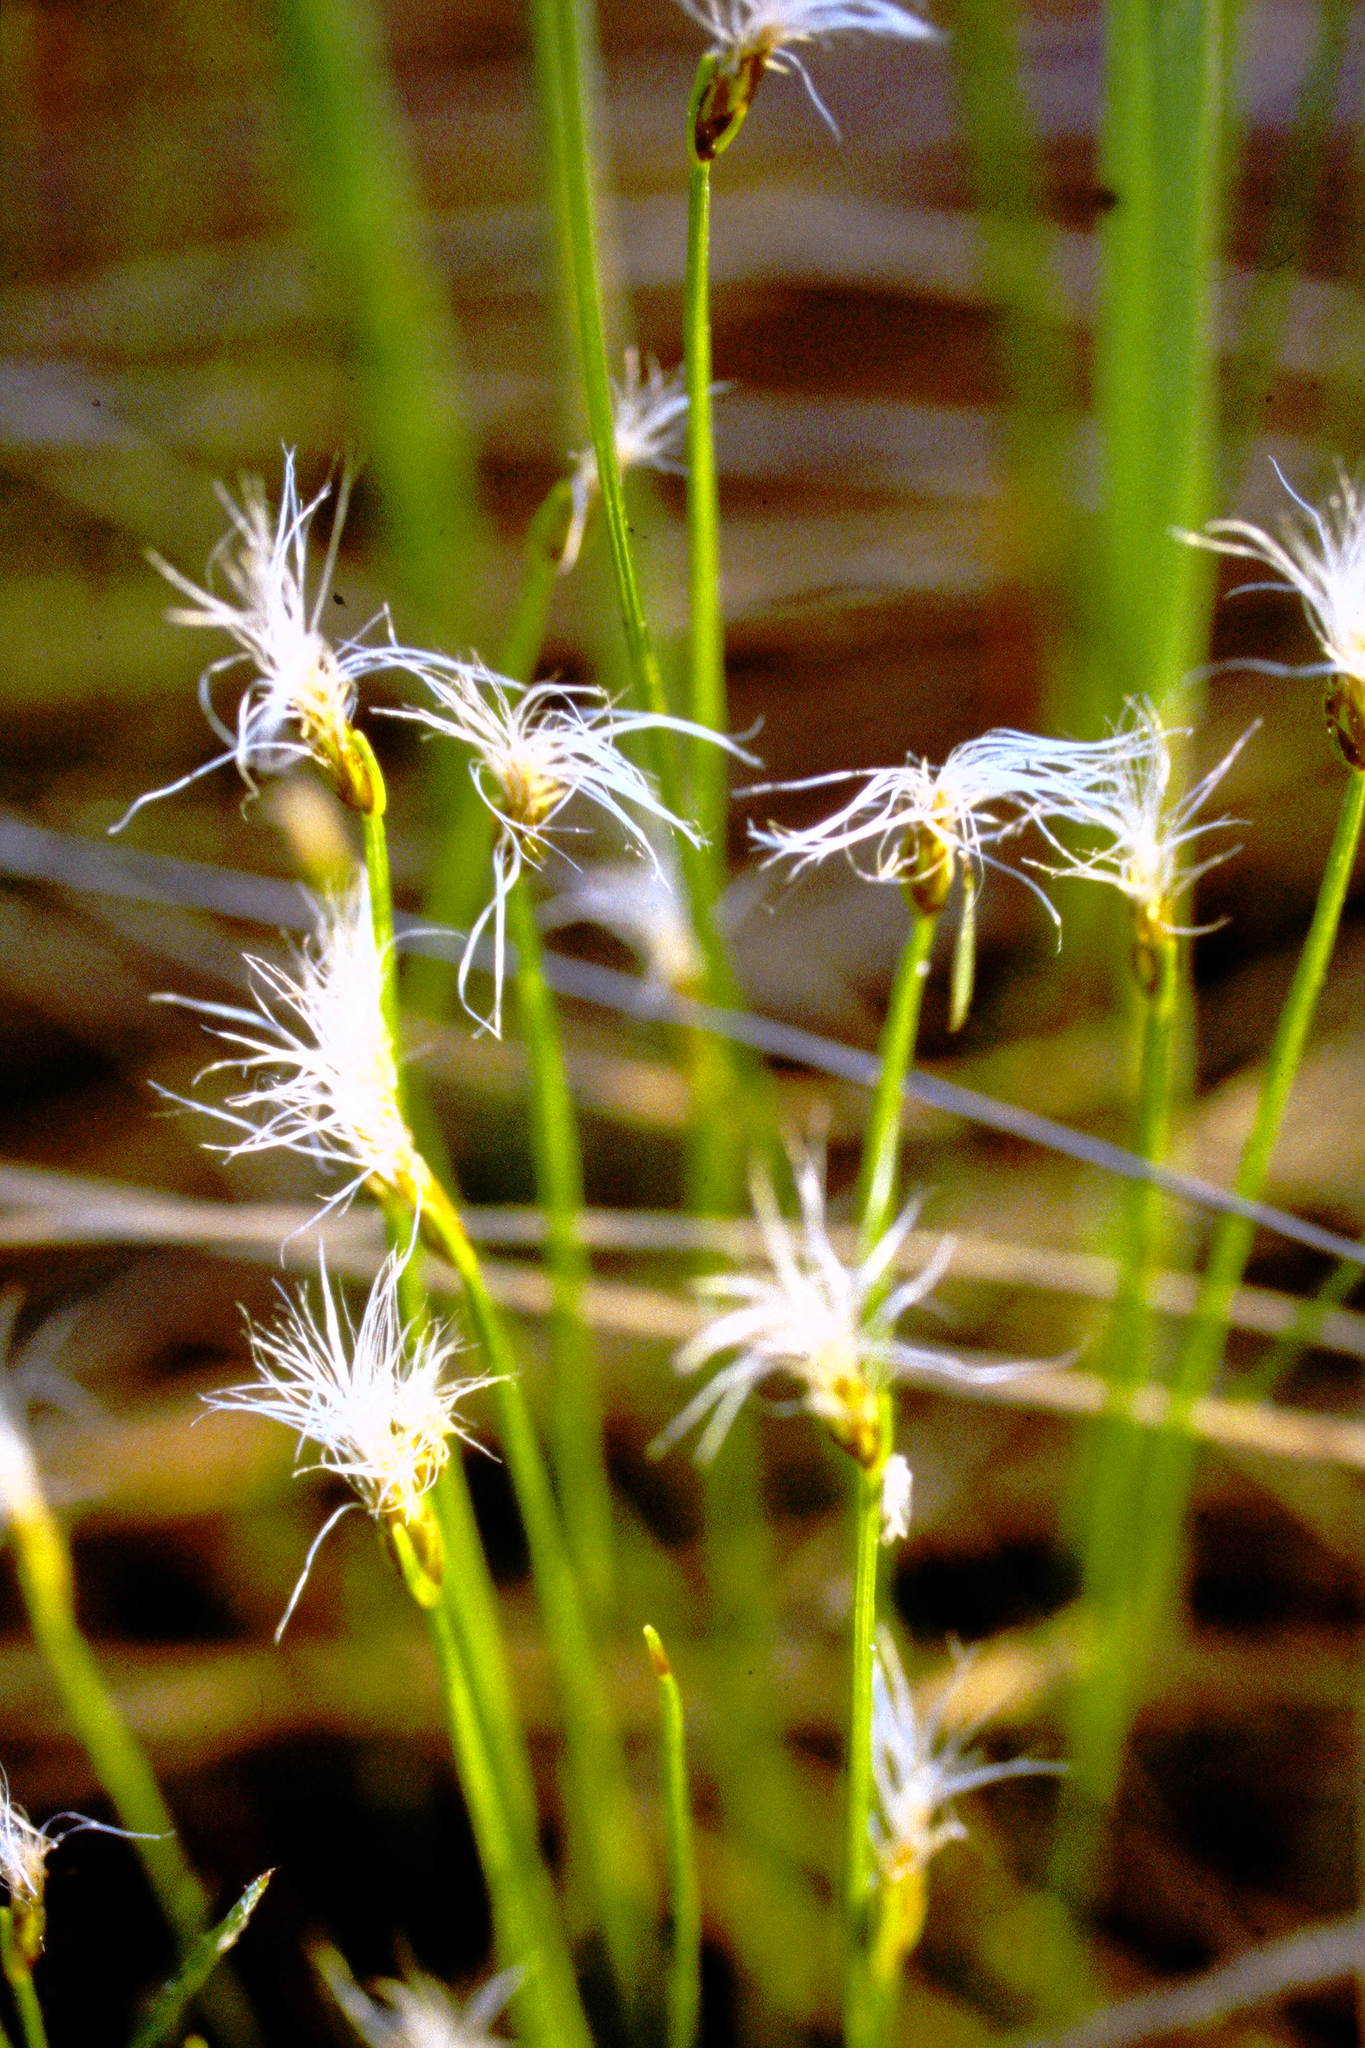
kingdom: Plantae
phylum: Tracheophyta
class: Liliopsida
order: Poales
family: Cyperaceae
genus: Trichophorum
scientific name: Trichophorum alpinum
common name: Alpine bulrush
